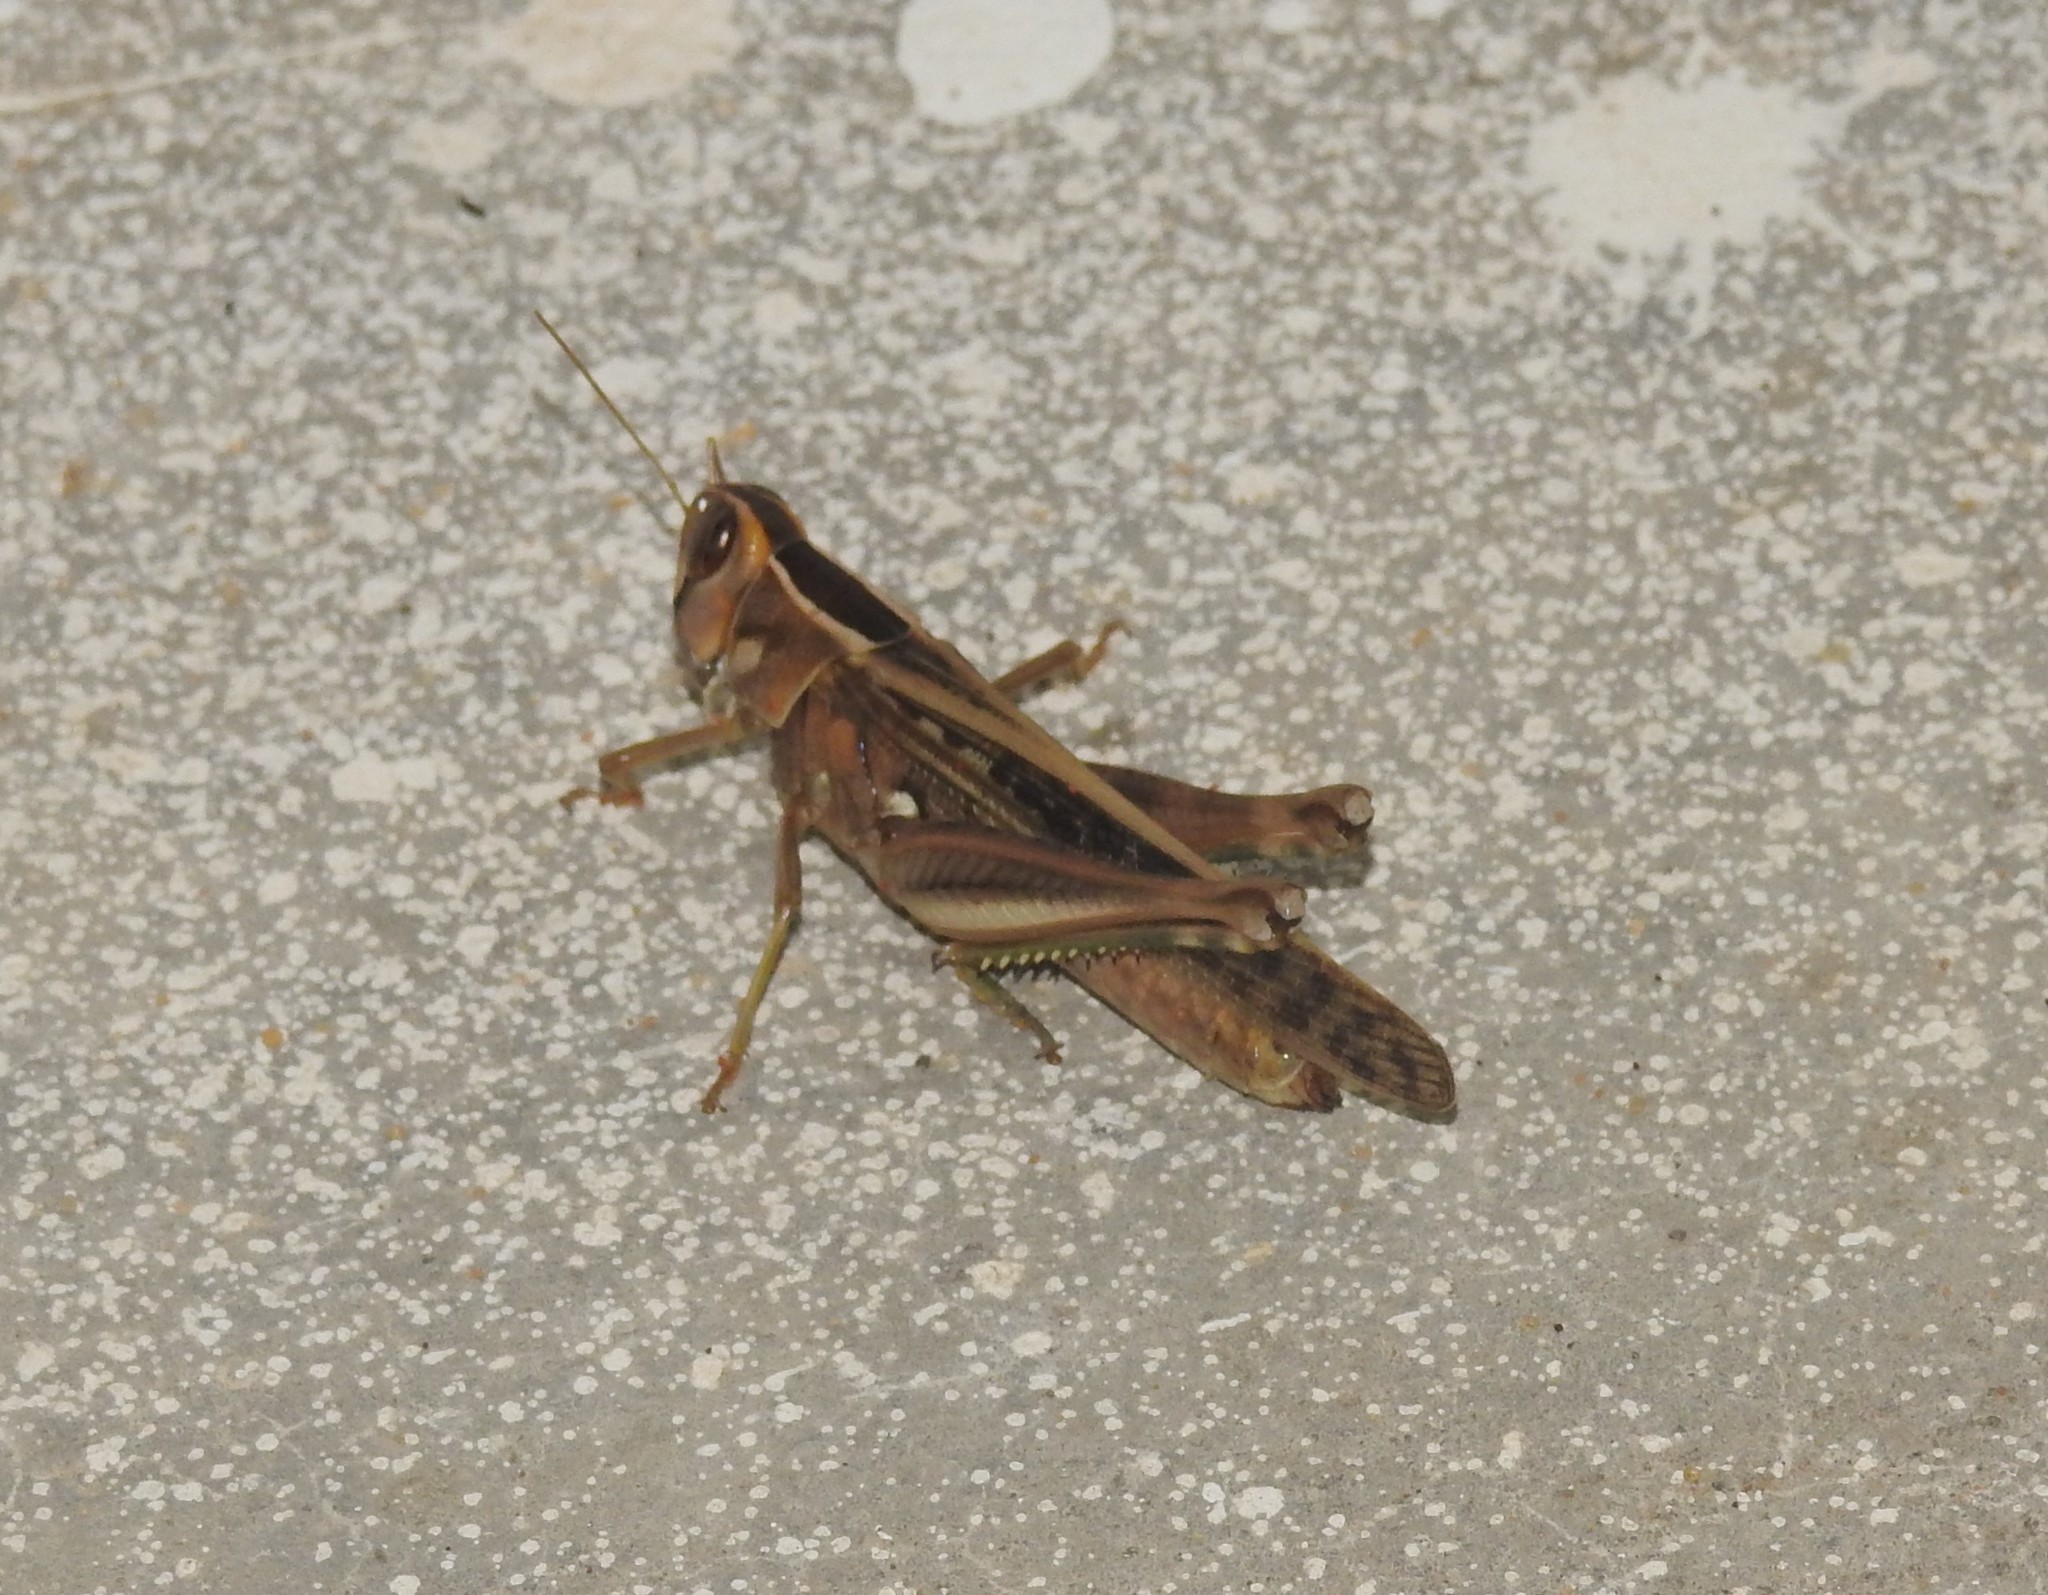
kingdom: Animalia
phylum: Arthropoda
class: Insecta
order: Orthoptera
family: Acrididae
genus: Eyprepocnemis
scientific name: Eyprepocnemis alacris
